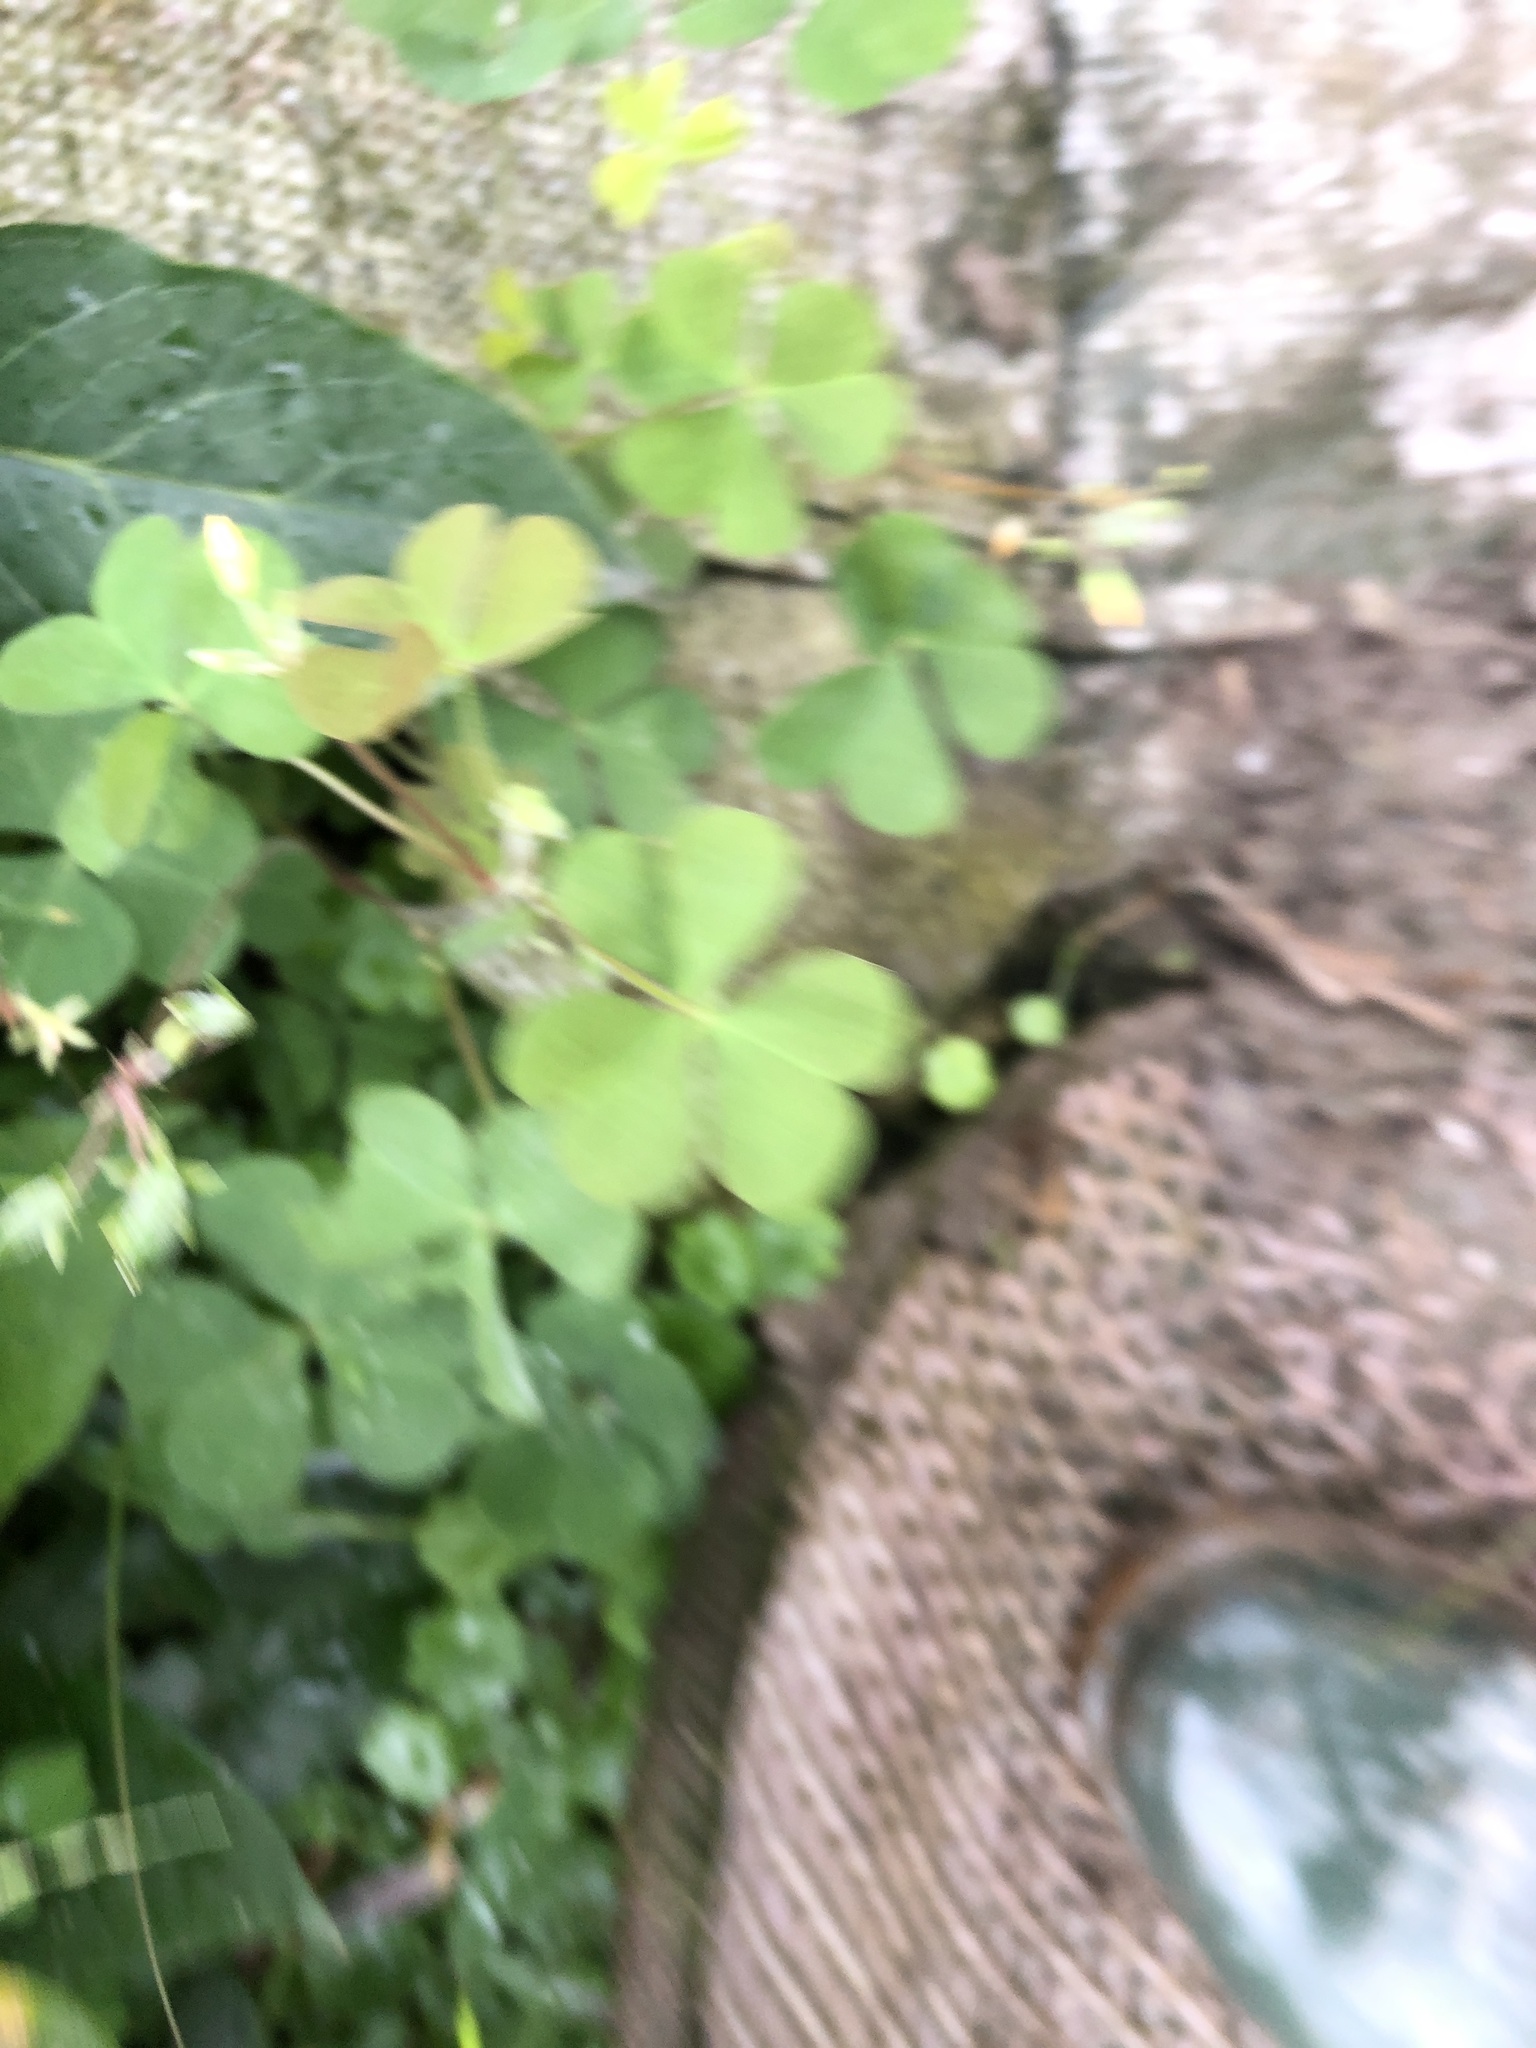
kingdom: Plantae
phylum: Tracheophyta
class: Magnoliopsida
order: Oxalidales
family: Oxalidaceae
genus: Oxalis
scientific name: Oxalis corniculata
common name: Procumbent yellow-sorrel
